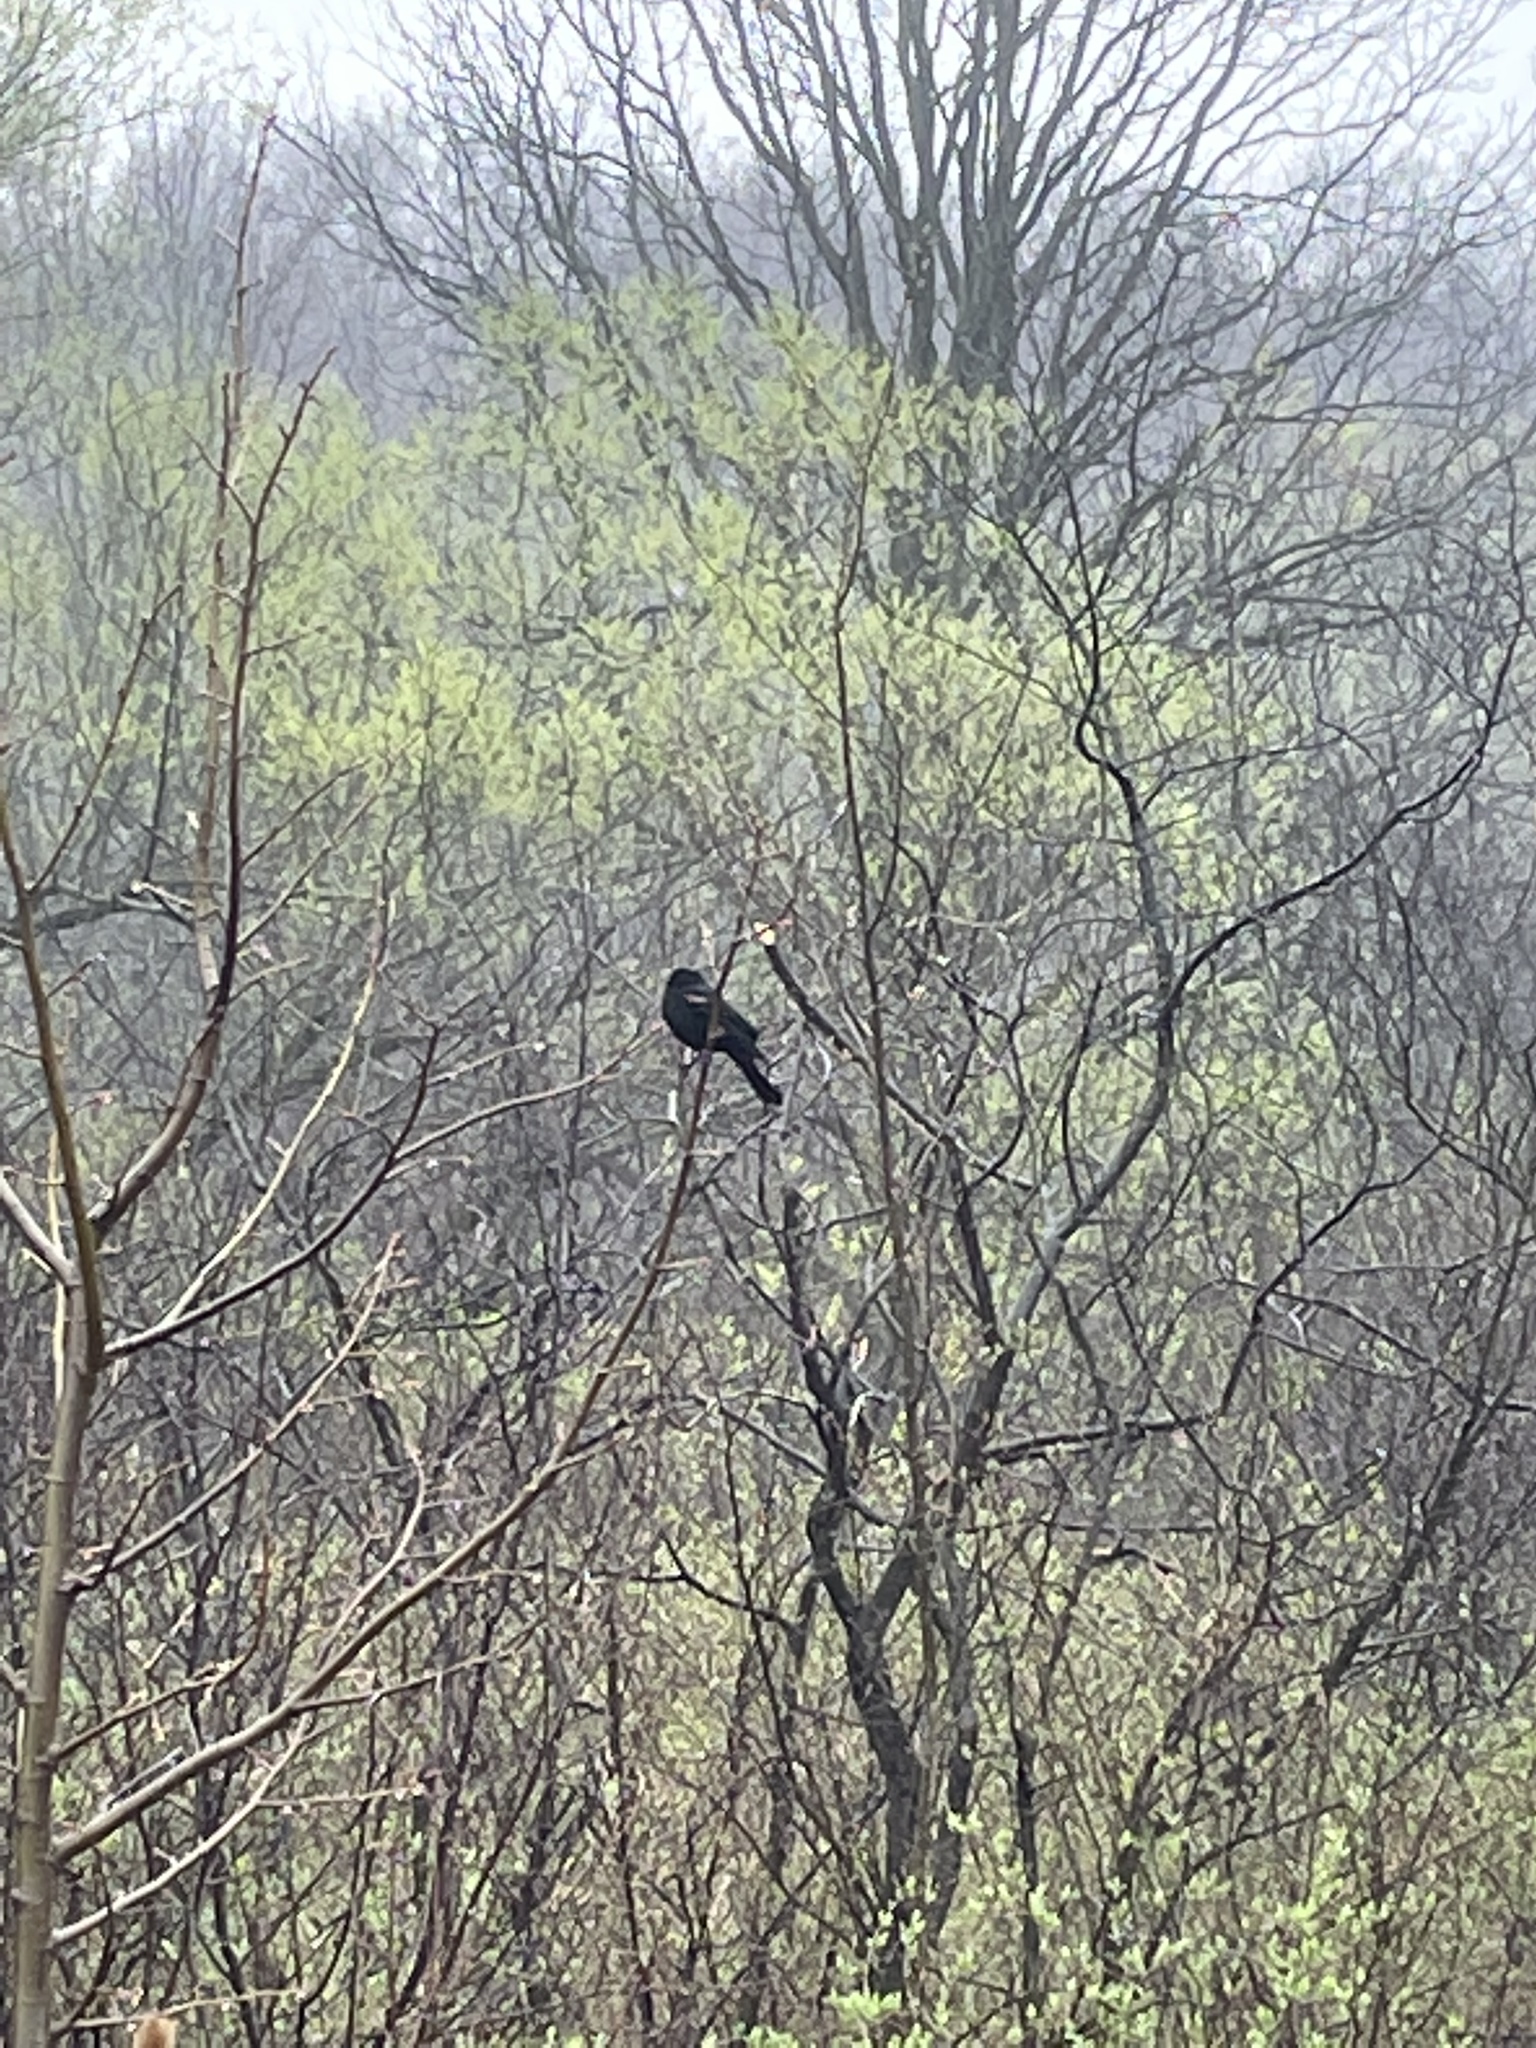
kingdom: Animalia
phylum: Chordata
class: Aves
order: Passeriformes
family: Icteridae
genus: Agelaius
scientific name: Agelaius phoeniceus
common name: Red-winged blackbird
